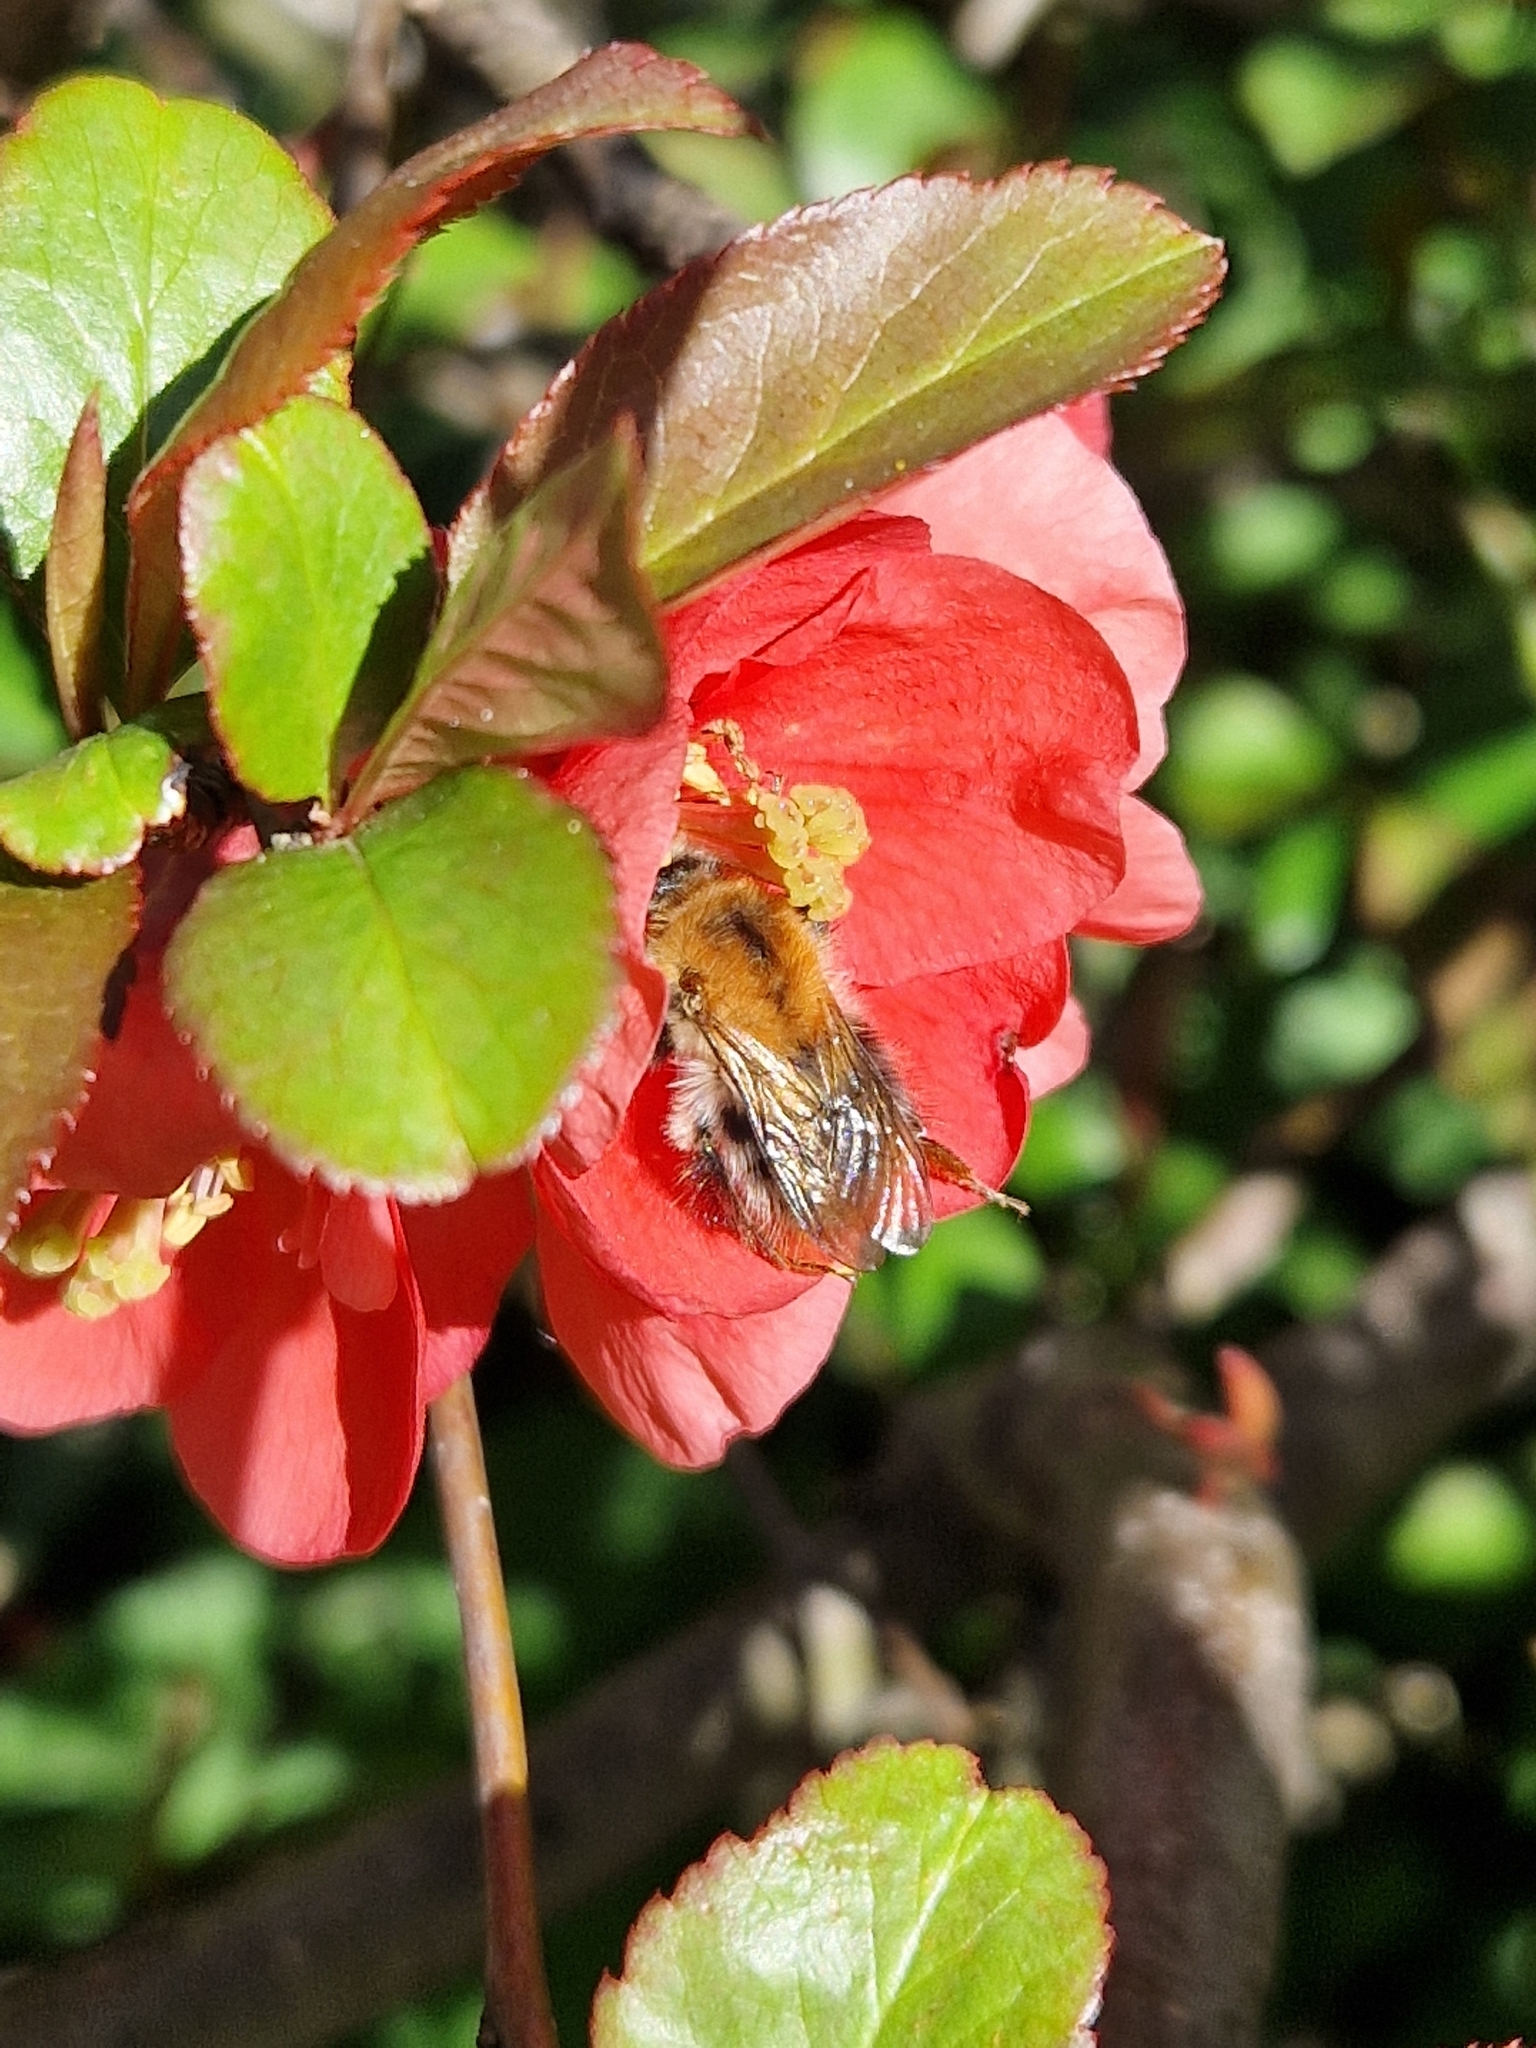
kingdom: Animalia
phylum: Arthropoda
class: Insecta
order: Hymenoptera
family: Apidae
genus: Bombus
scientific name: Bombus pascuorum
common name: Common carder bee
